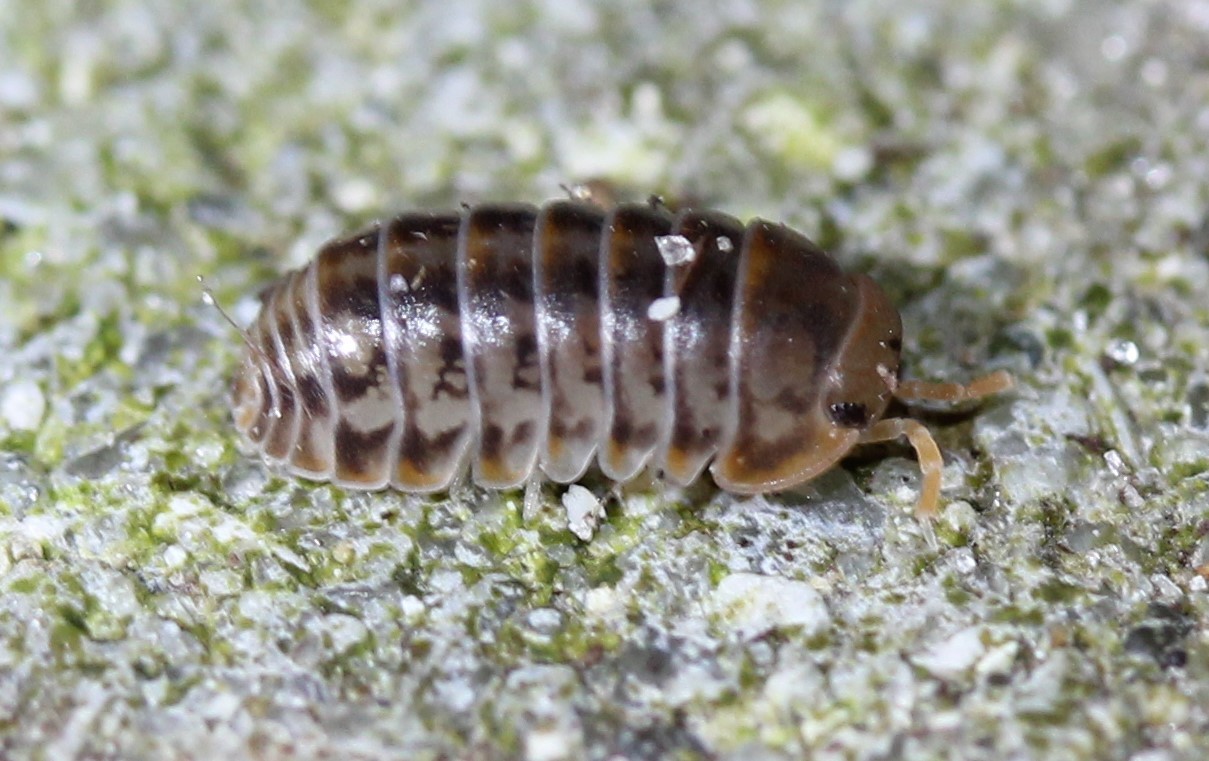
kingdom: Animalia
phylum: Arthropoda
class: Malacostraca
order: Isopoda
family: Armadillidae
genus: Venezillo
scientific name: Venezillo parvus
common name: Pillbug
